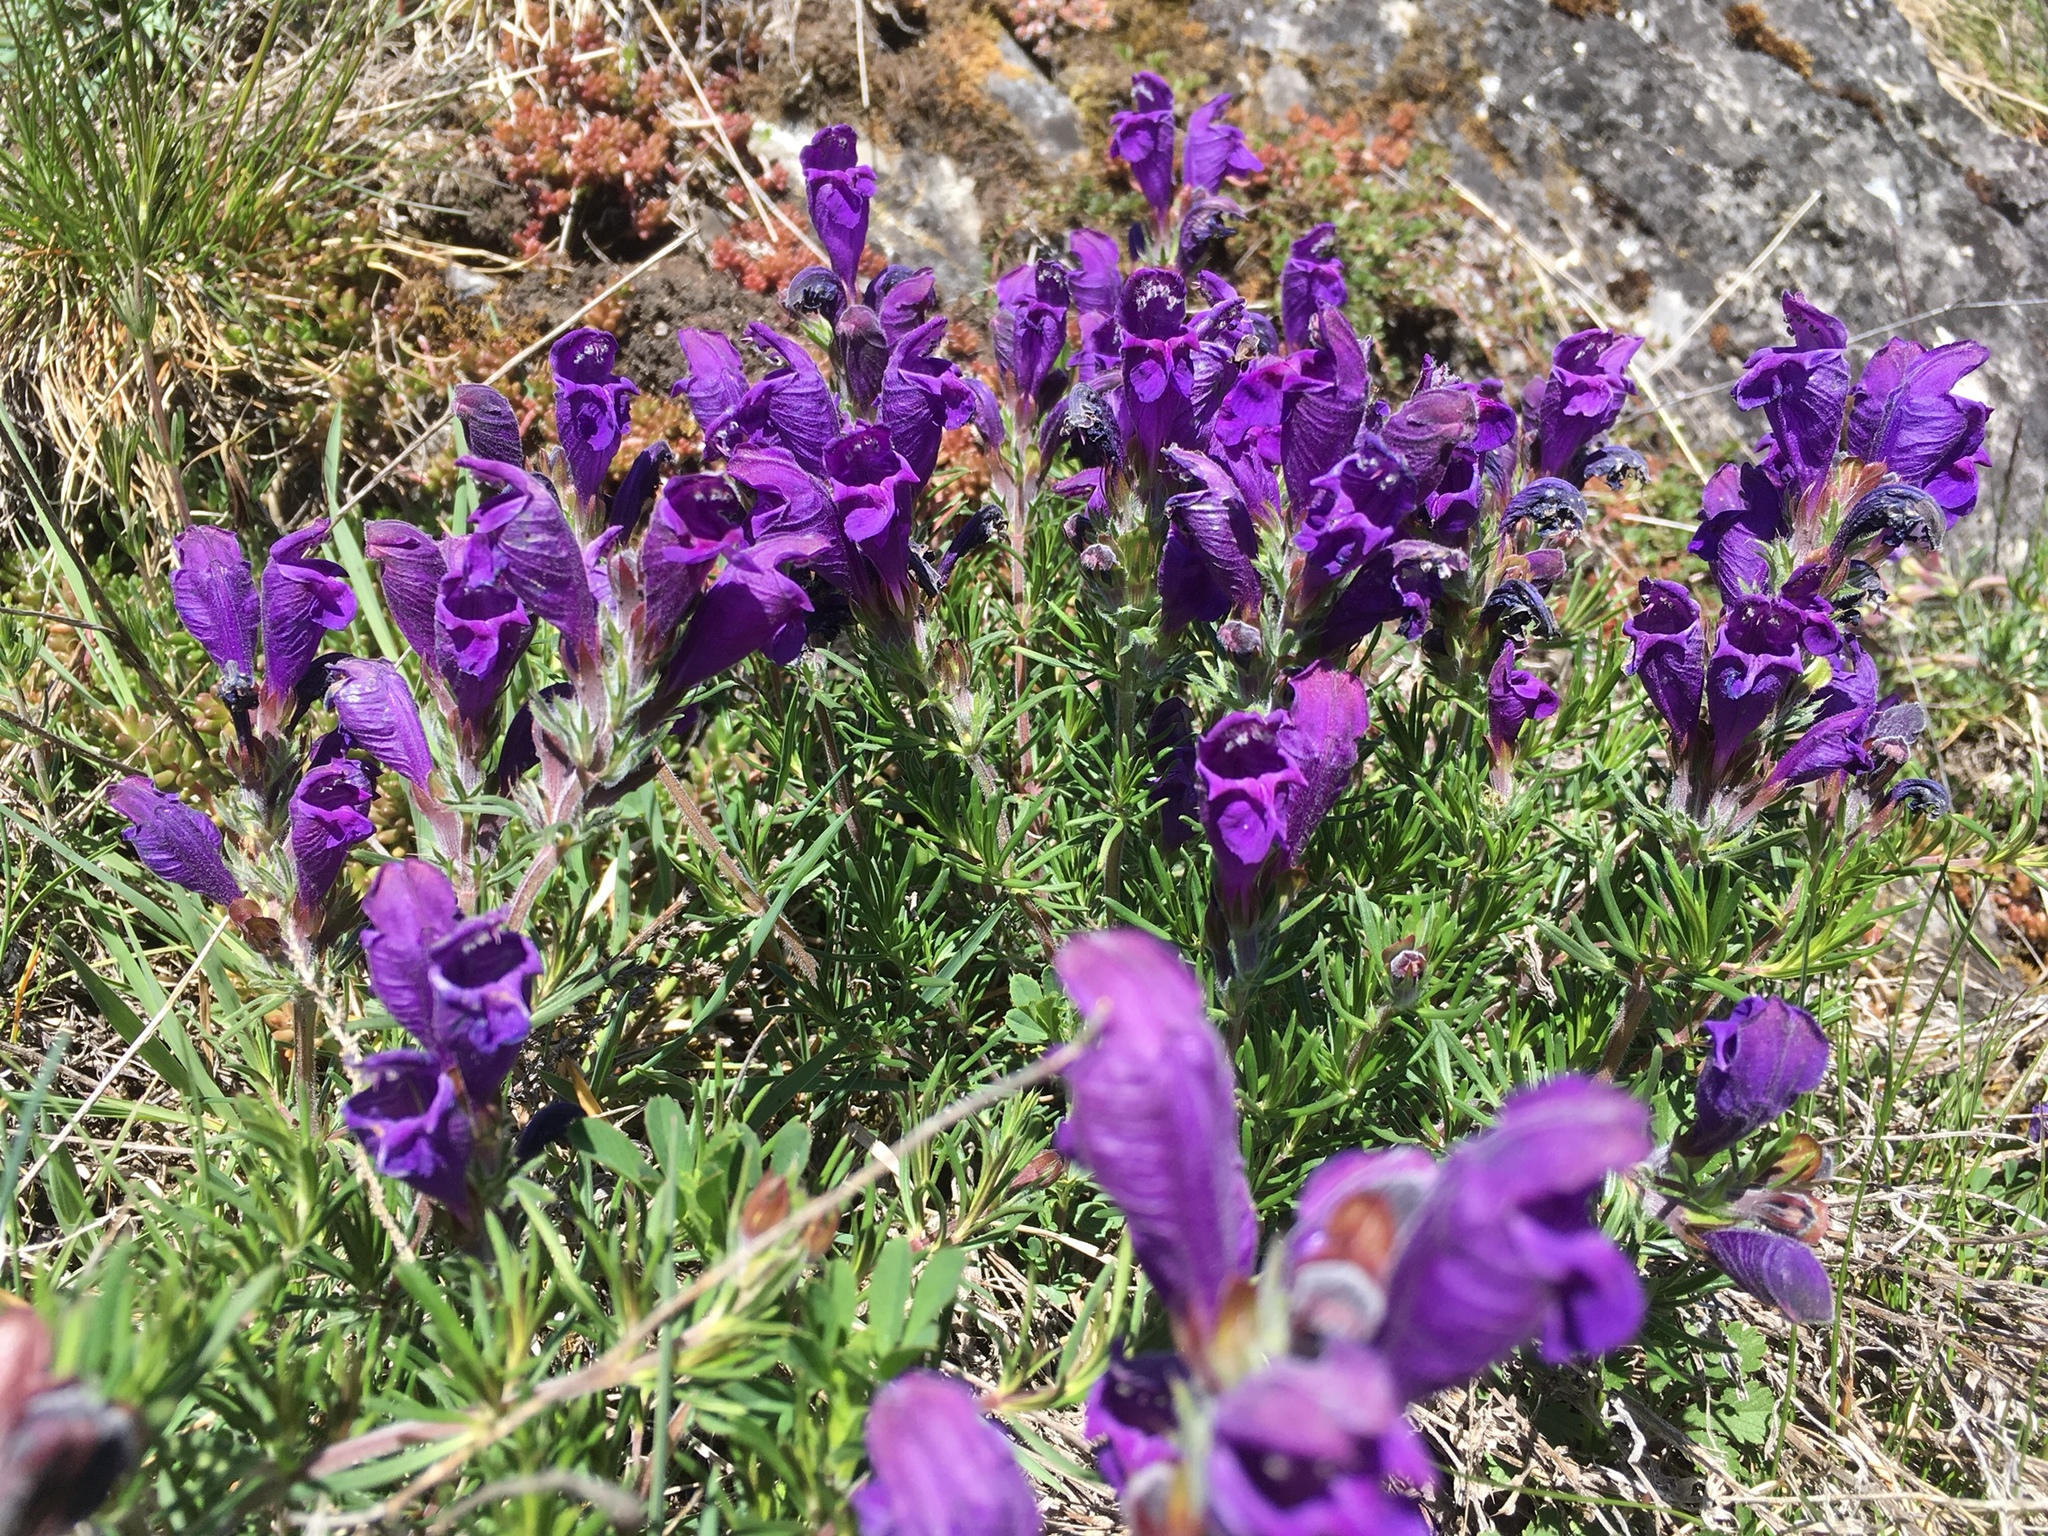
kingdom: Plantae
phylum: Tracheophyta
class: Magnoliopsida
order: Lamiales
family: Lamiaceae
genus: Dracocephalum
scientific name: Dracocephalum austriacum
